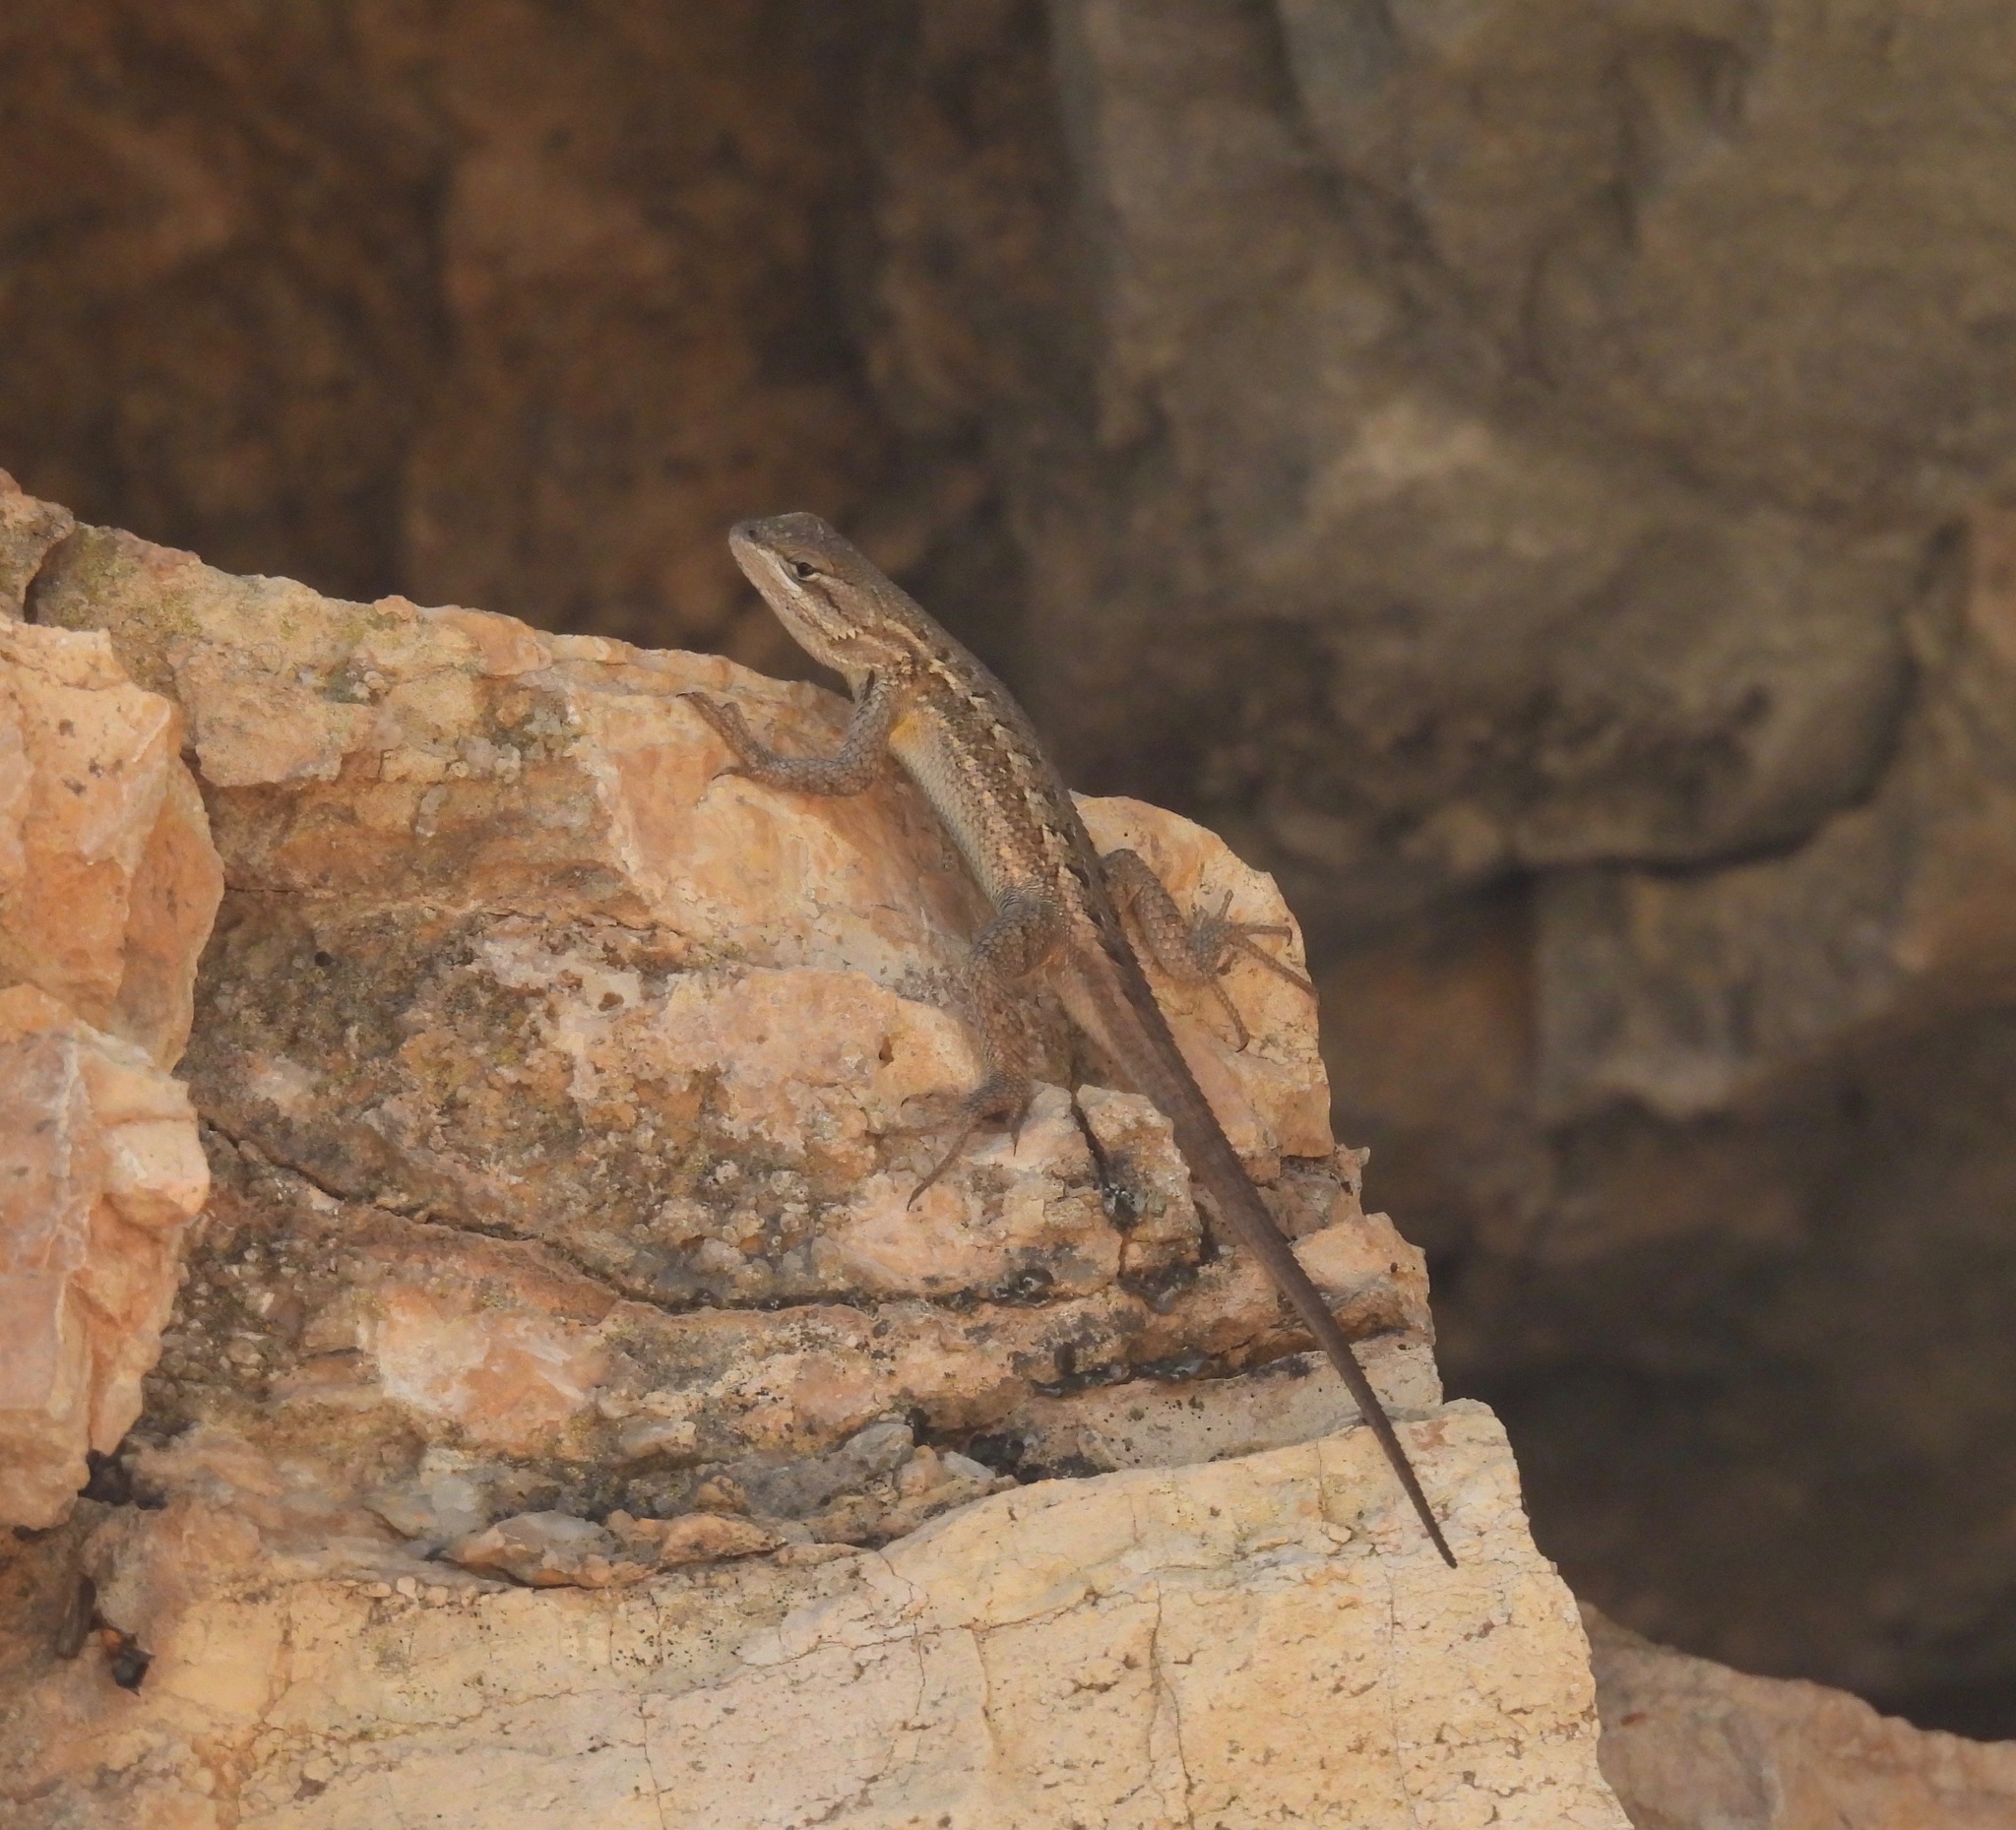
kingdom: Animalia
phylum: Chordata
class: Squamata
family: Phrynosomatidae
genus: Sceloporus
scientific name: Sceloporus cowlesi
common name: White sands prairie lizard
